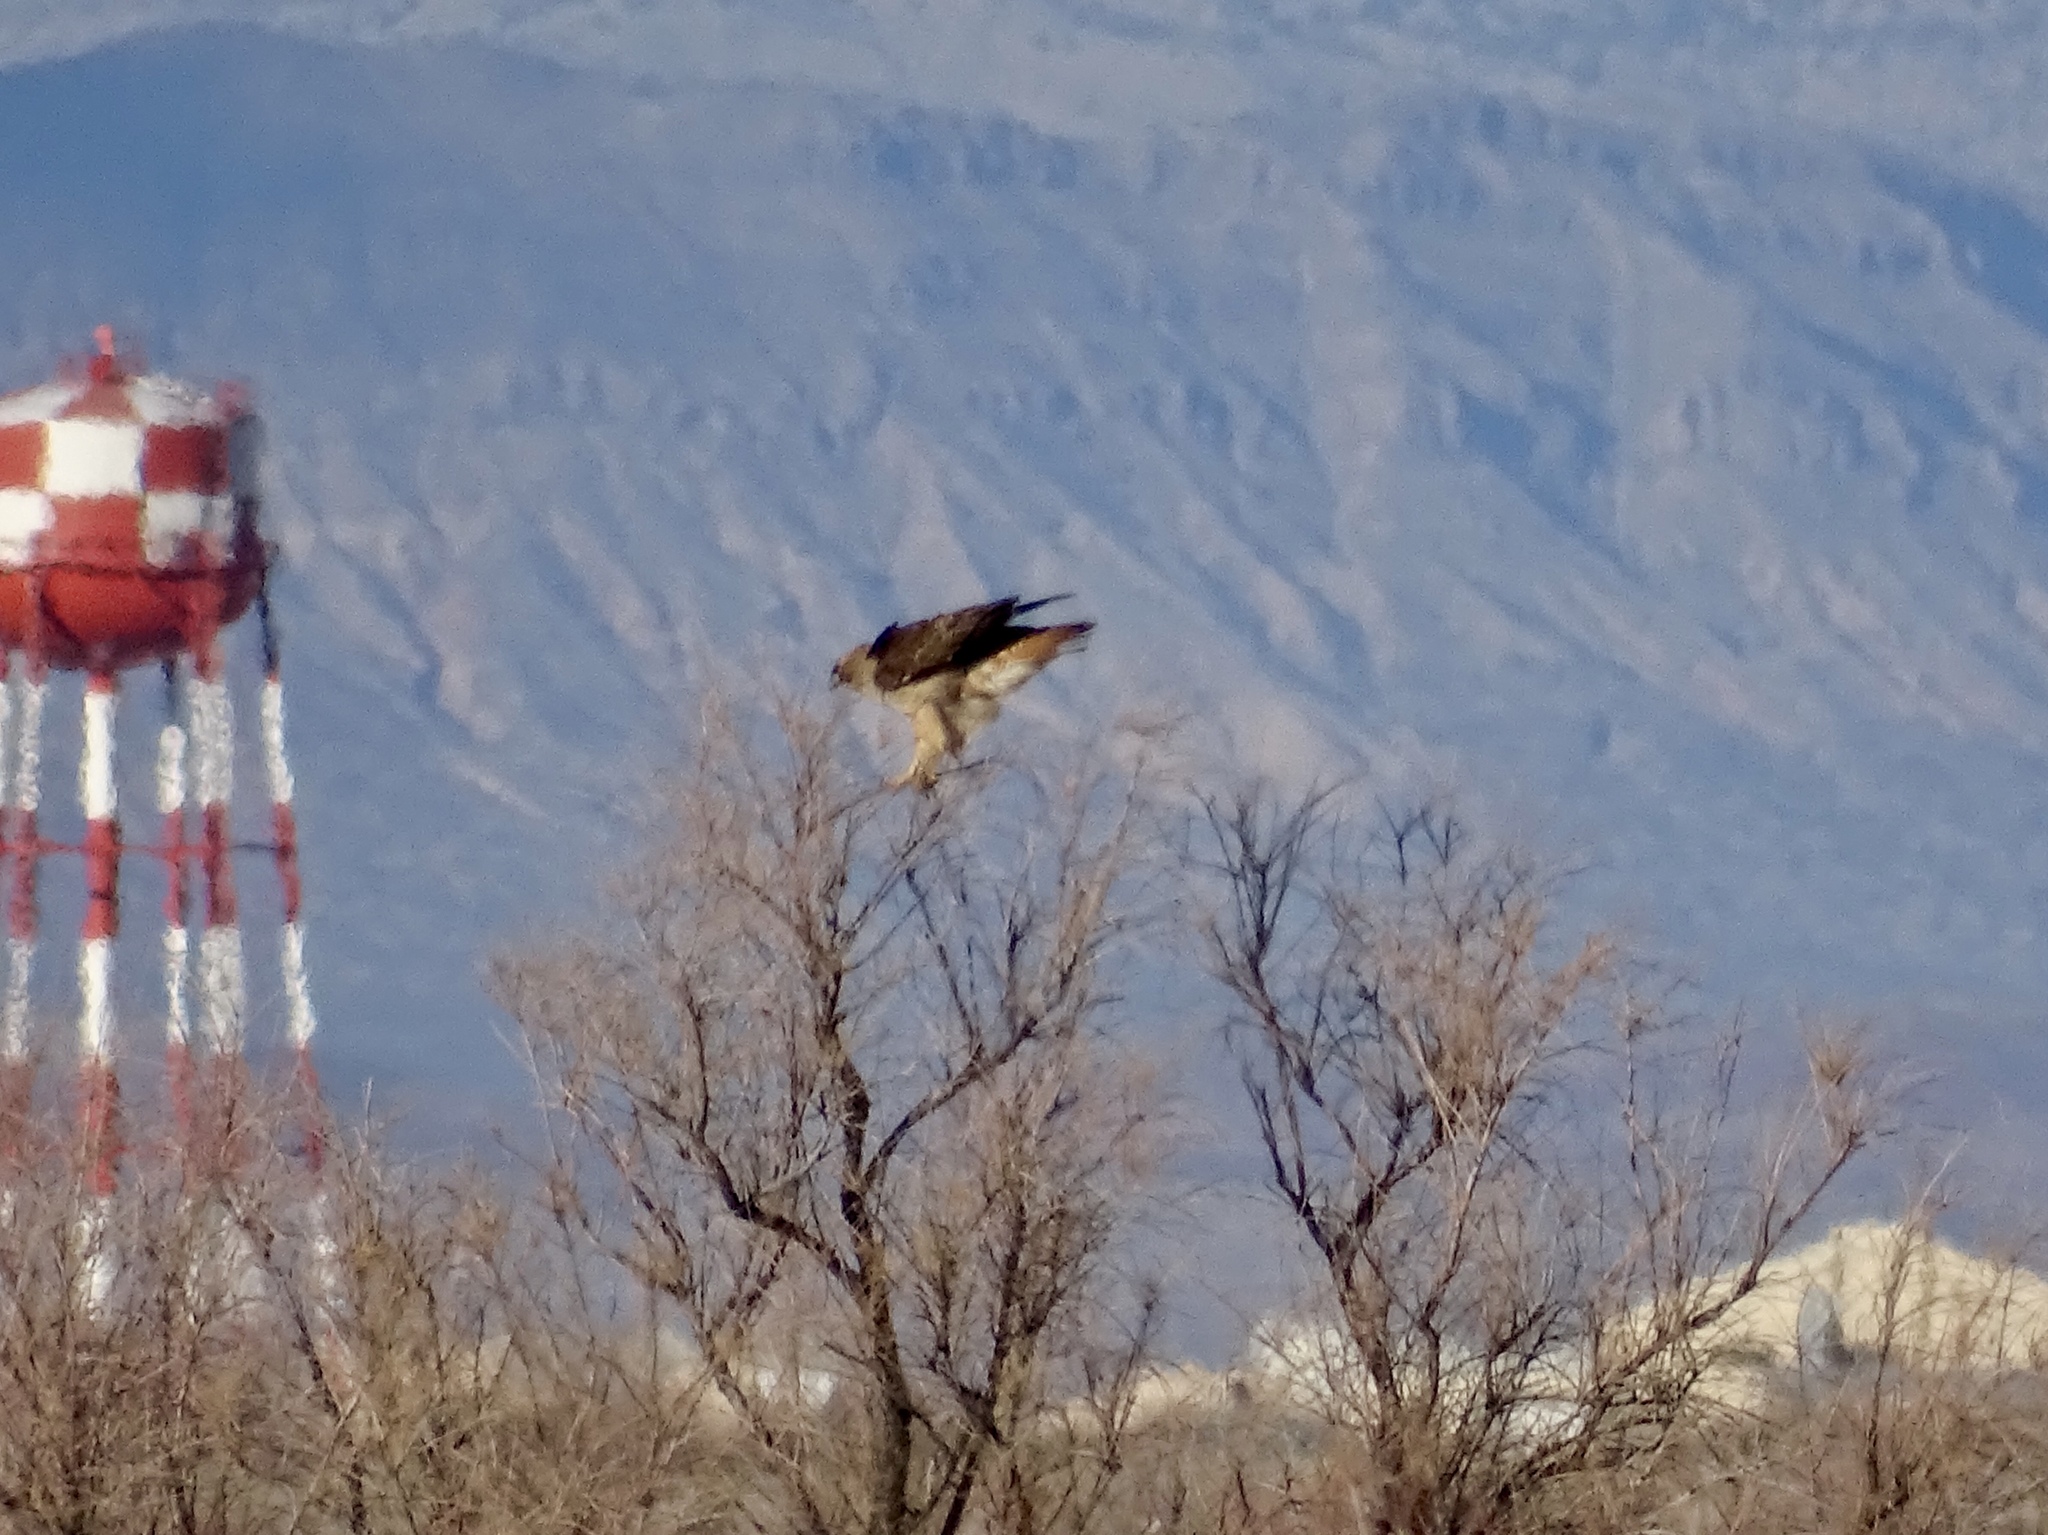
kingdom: Animalia
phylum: Chordata
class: Aves
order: Accipitriformes
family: Accipitridae
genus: Buteo
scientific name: Buteo jamaicensis
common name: Red-tailed hawk
